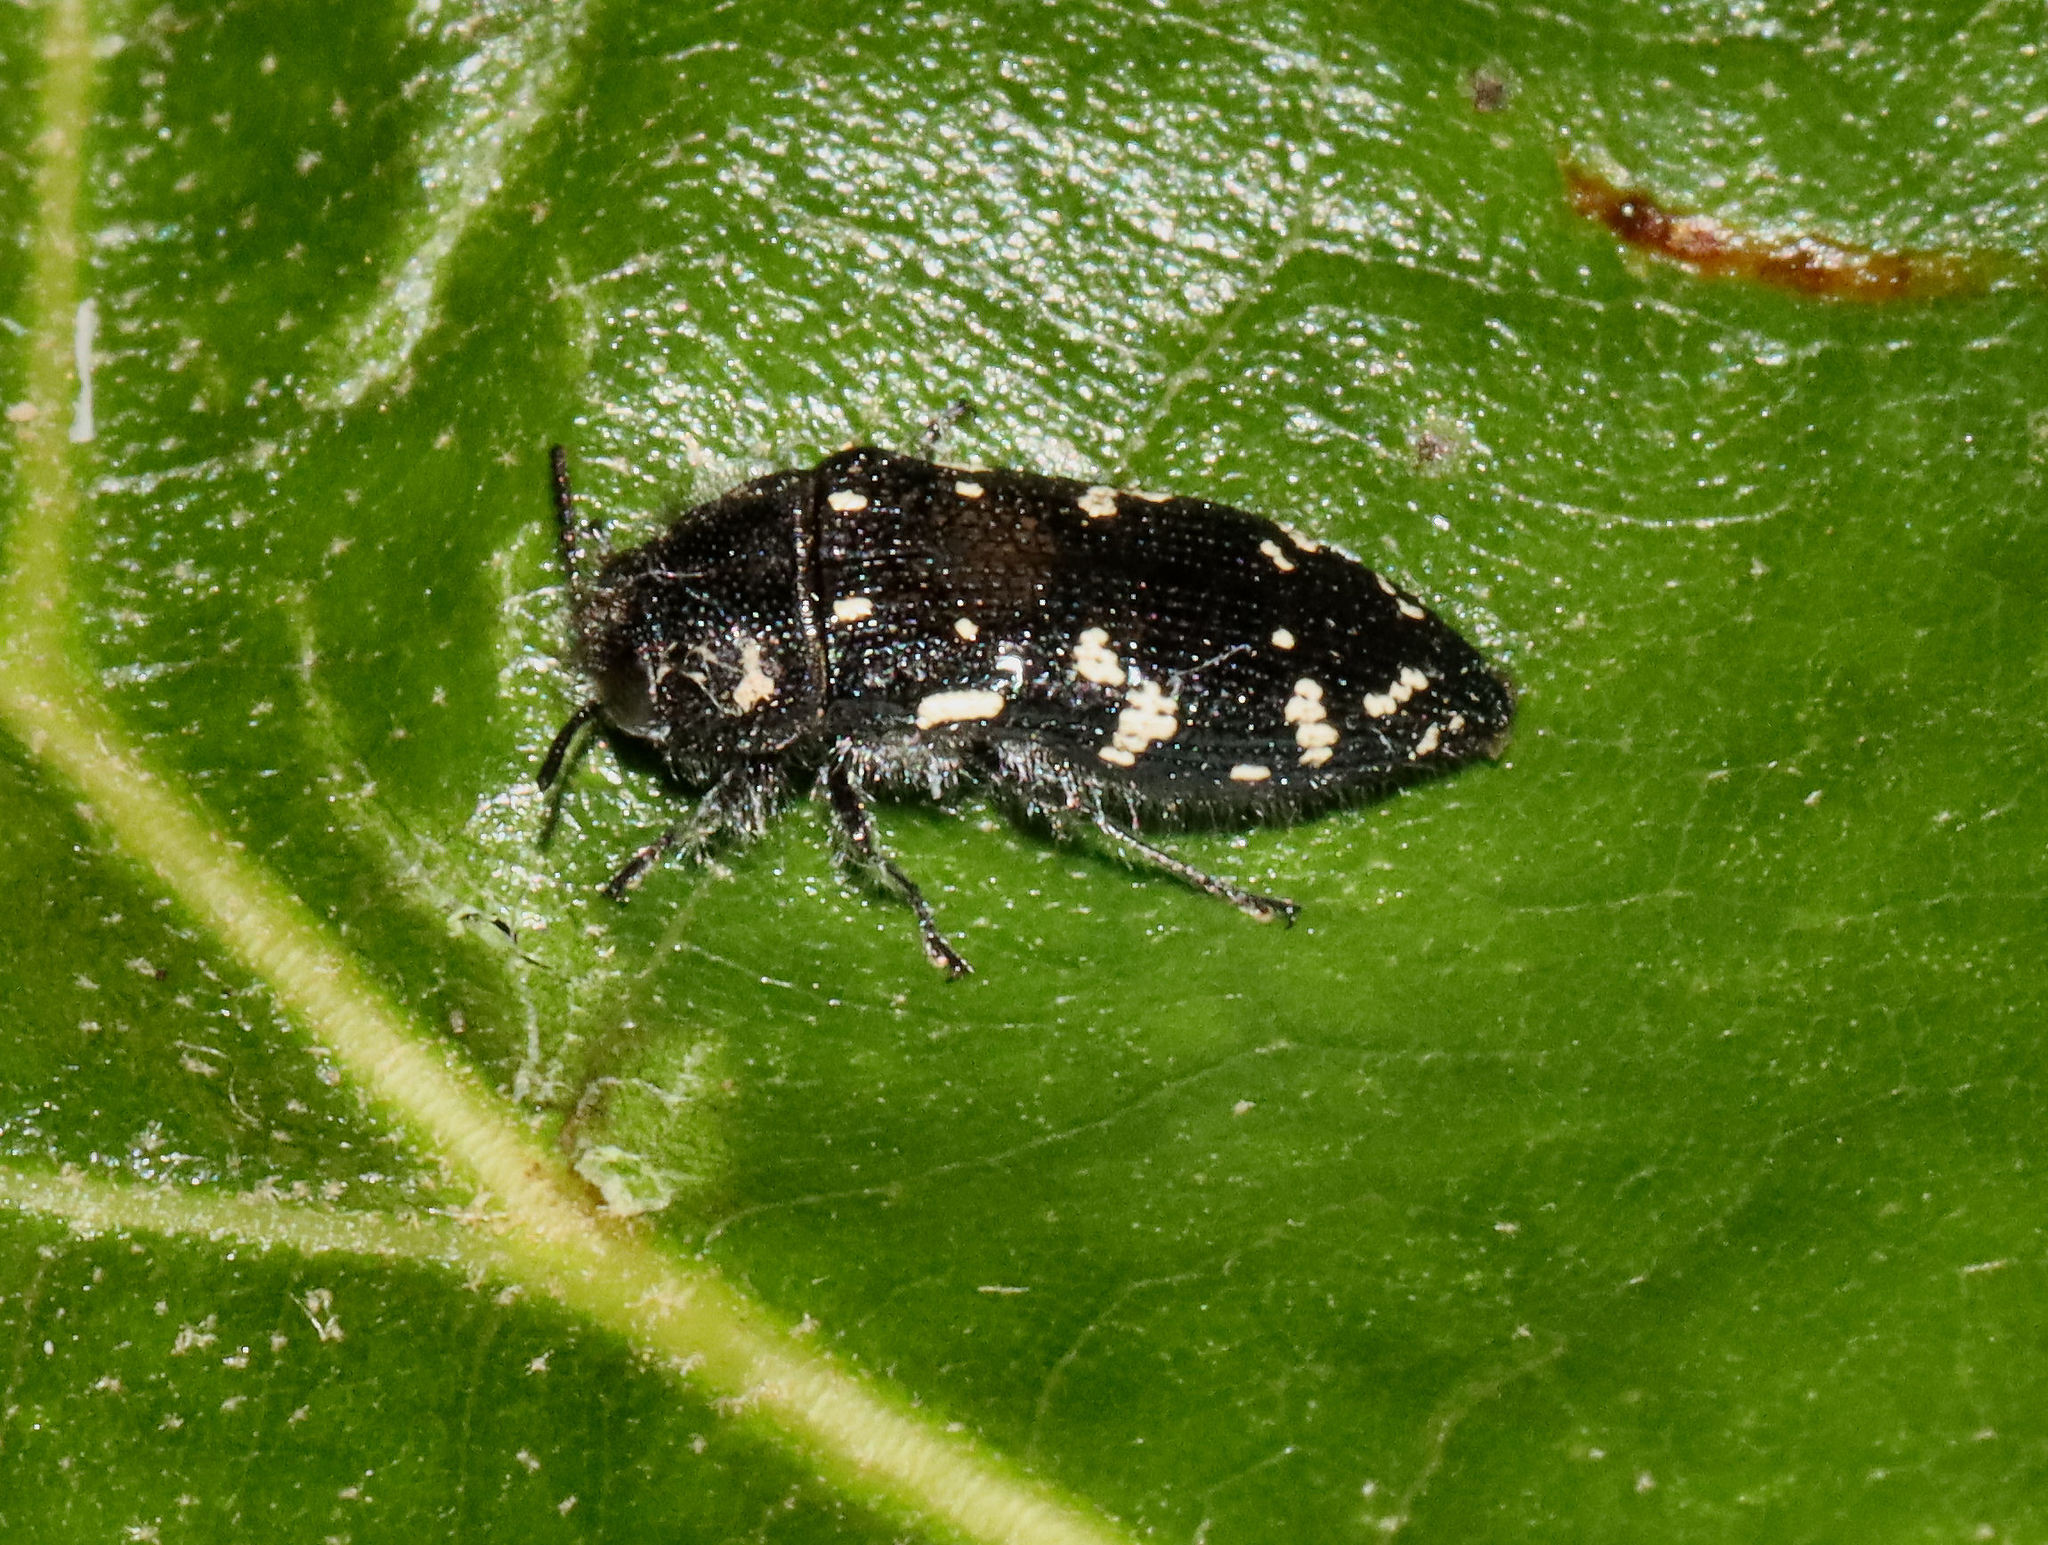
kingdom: Animalia
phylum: Arthropoda
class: Insecta
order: Coleoptera
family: Buprestidae
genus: Acmaeodera
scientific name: Acmaeodera ornata
